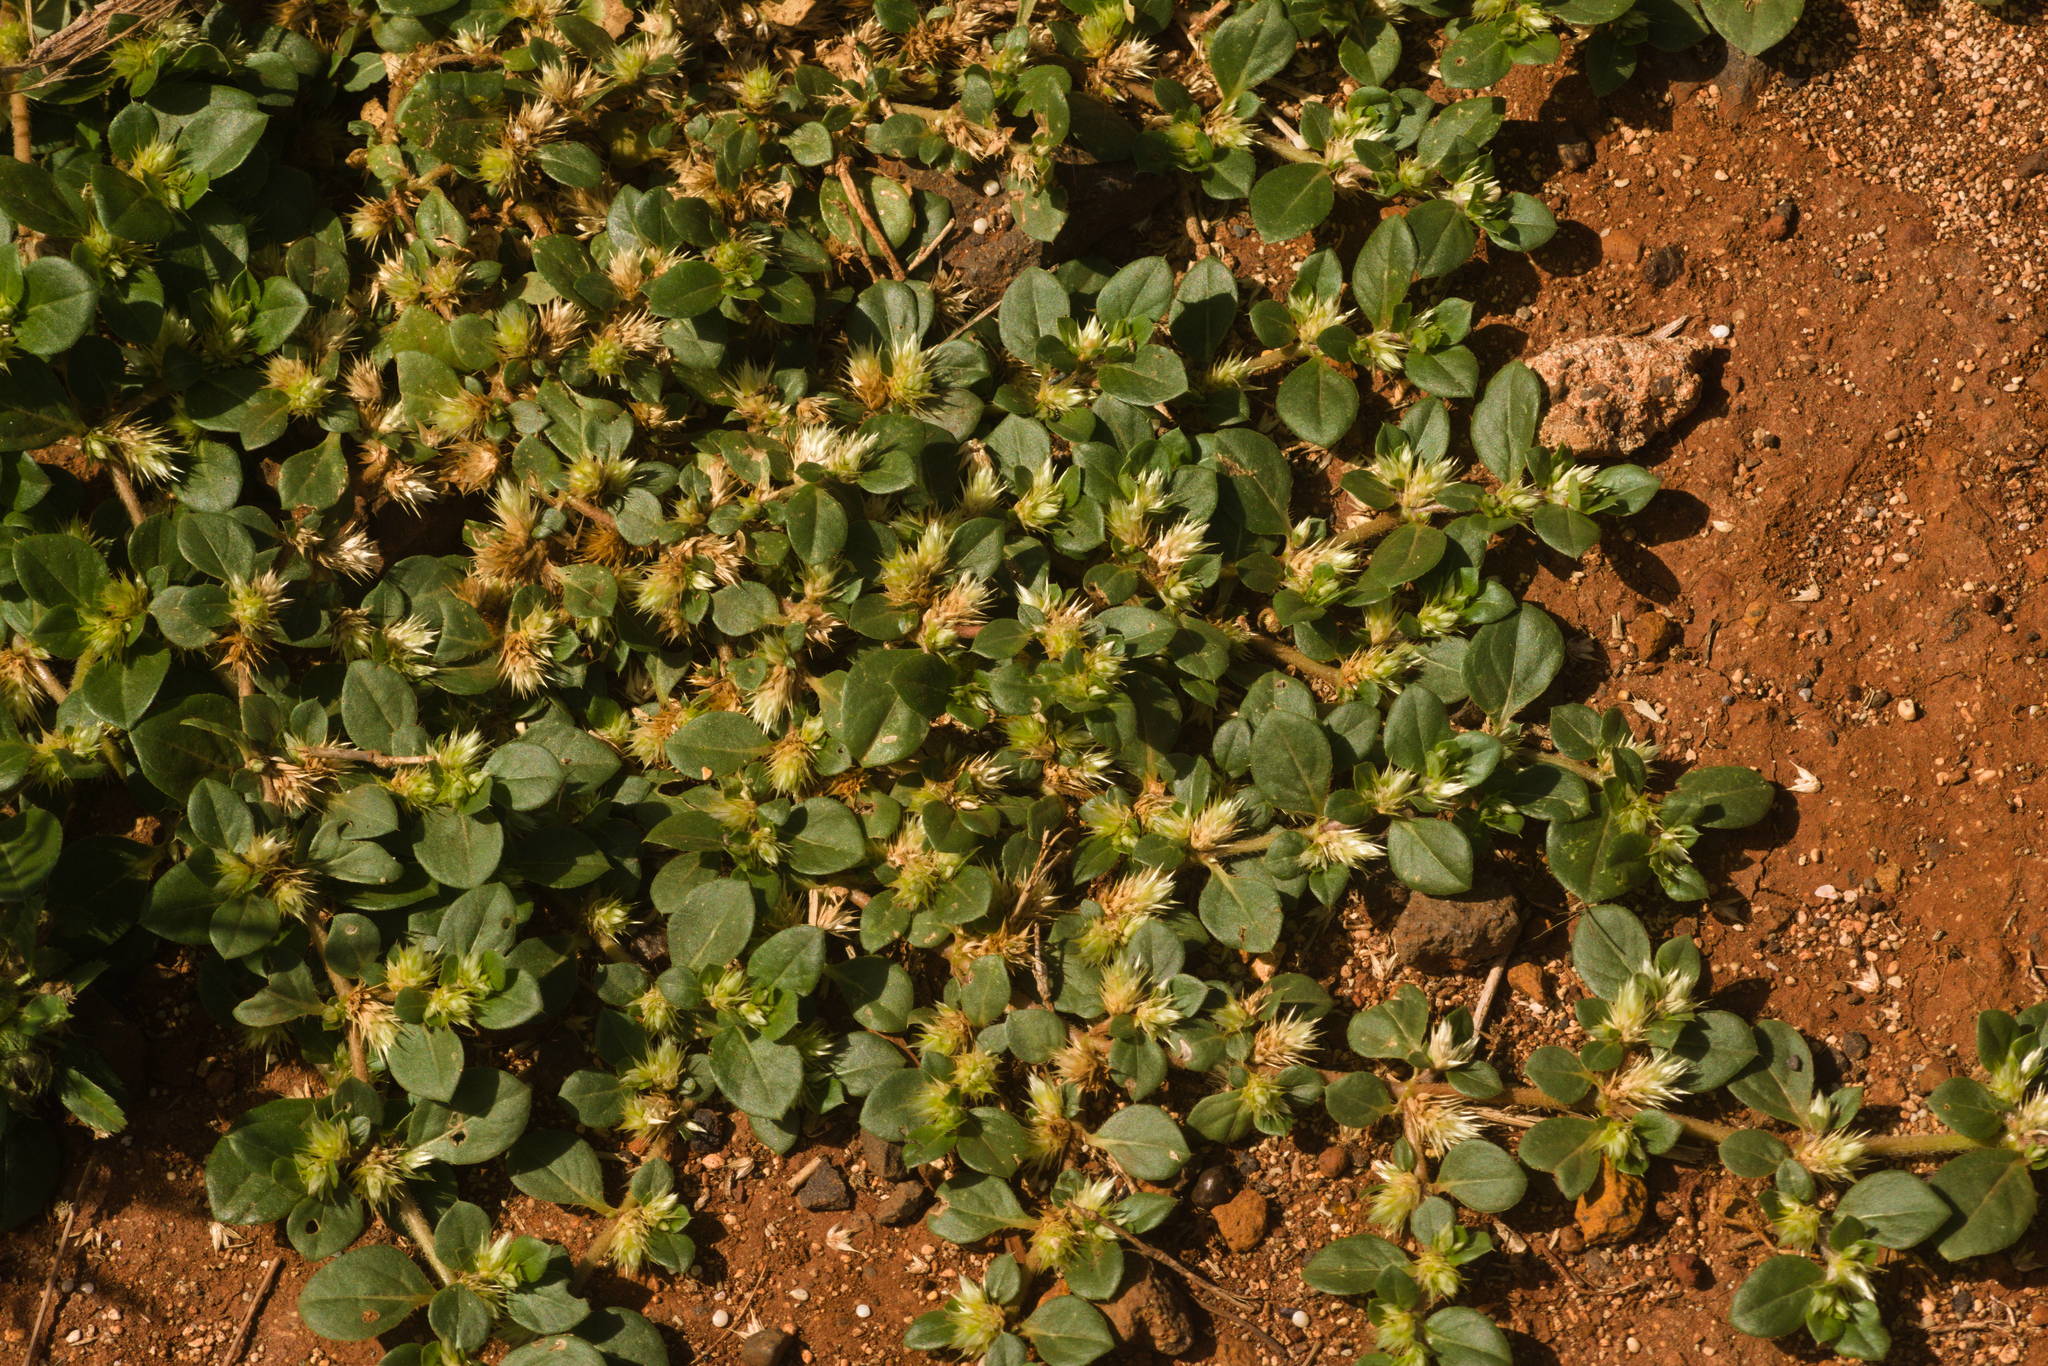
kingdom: Plantae
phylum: Tracheophyta
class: Magnoliopsida
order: Caryophyllales
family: Amaranthaceae
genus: Alternanthera
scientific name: Alternanthera pungens
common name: Khakiweed
